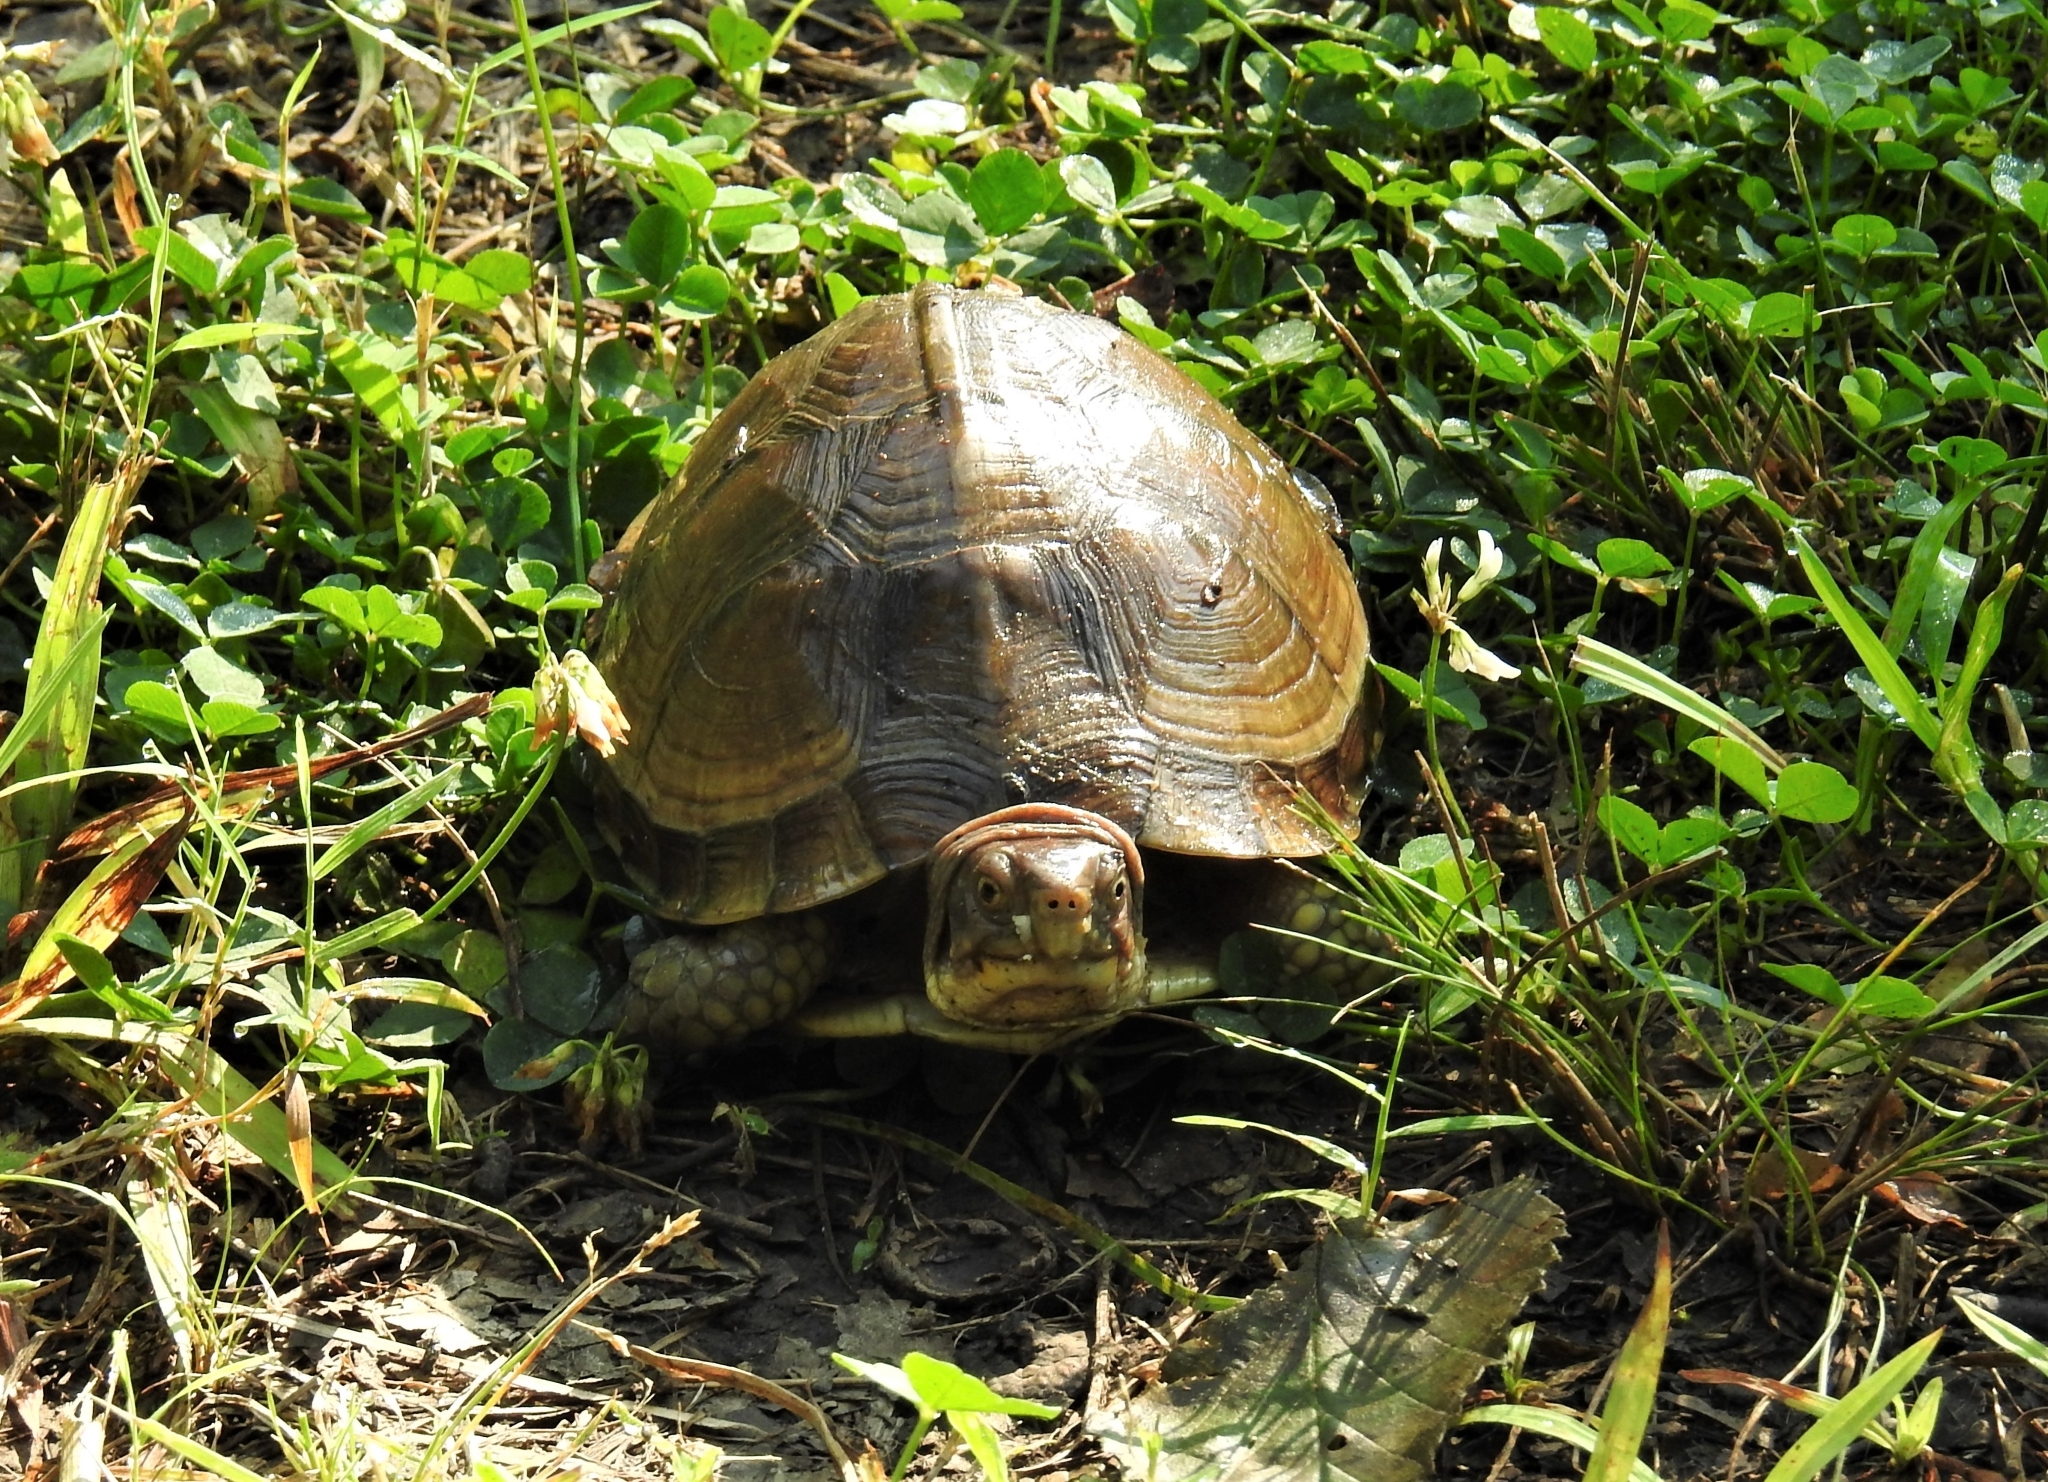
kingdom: Animalia
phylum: Chordata
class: Testudines
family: Emydidae
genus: Terrapene
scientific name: Terrapene carolina
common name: Common box turtle
